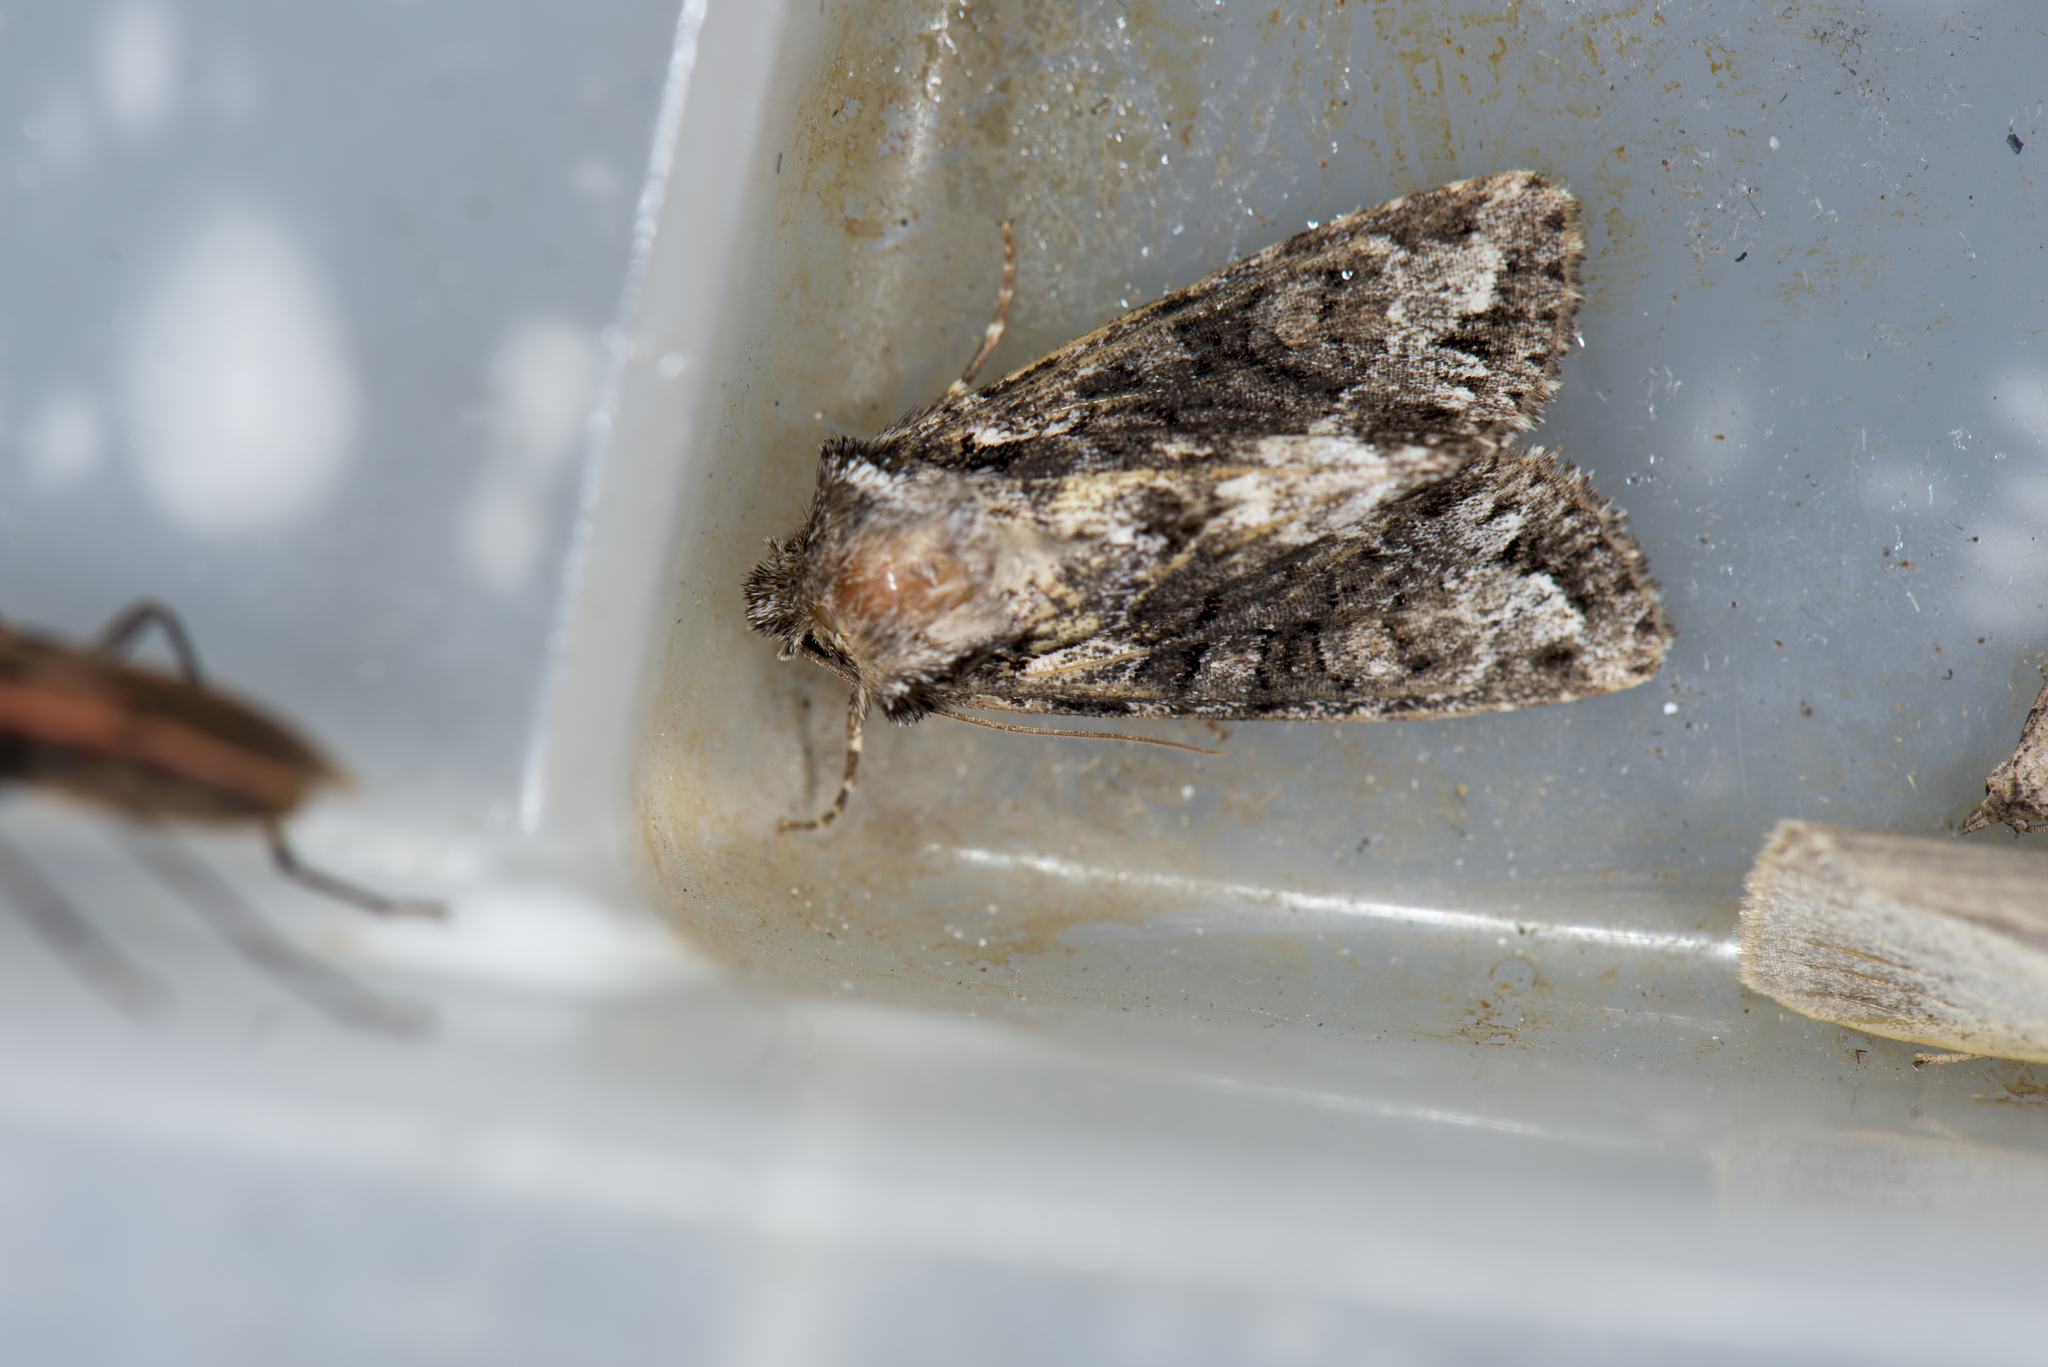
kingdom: Animalia
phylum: Arthropoda
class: Insecta
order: Lepidoptera
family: Noctuidae
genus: Xylopolia
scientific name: Xylopolia fulvireniforma
